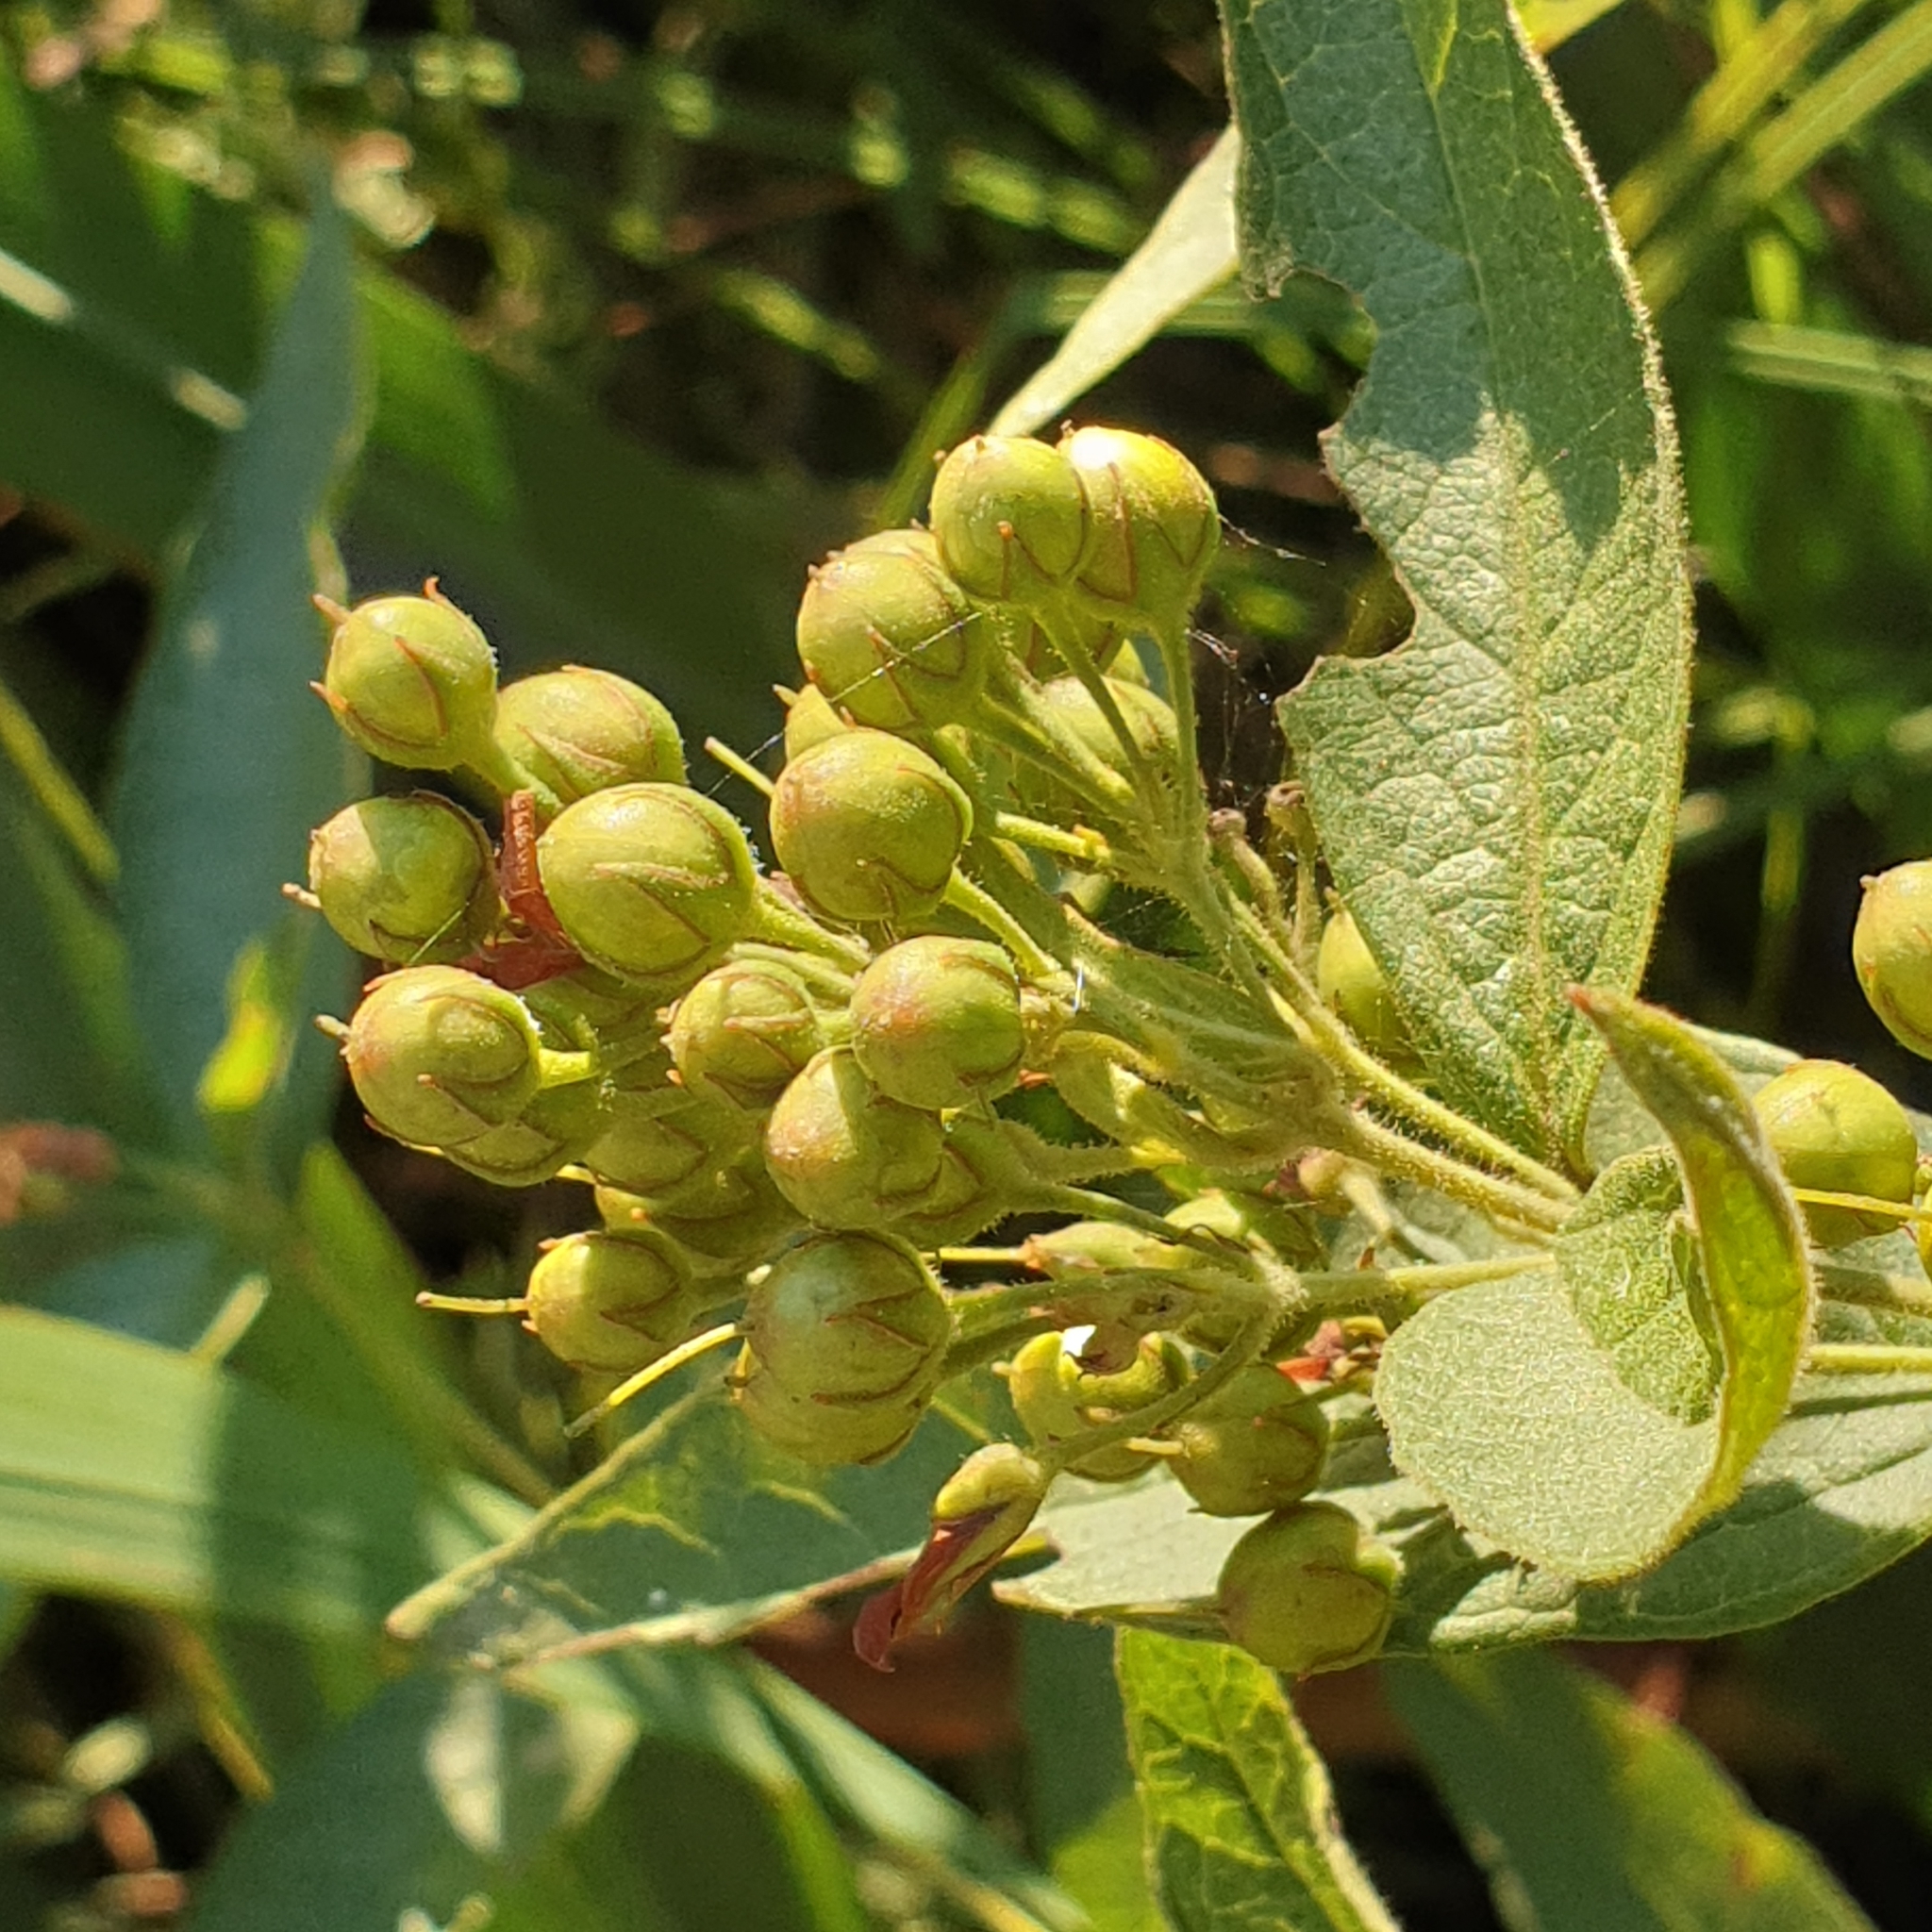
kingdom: Plantae
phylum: Tracheophyta
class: Magnoliopsida
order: Ericales
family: Primulaceae
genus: Lysimachia
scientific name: Lysimachia vulgaris
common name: Yellow loosestrife
